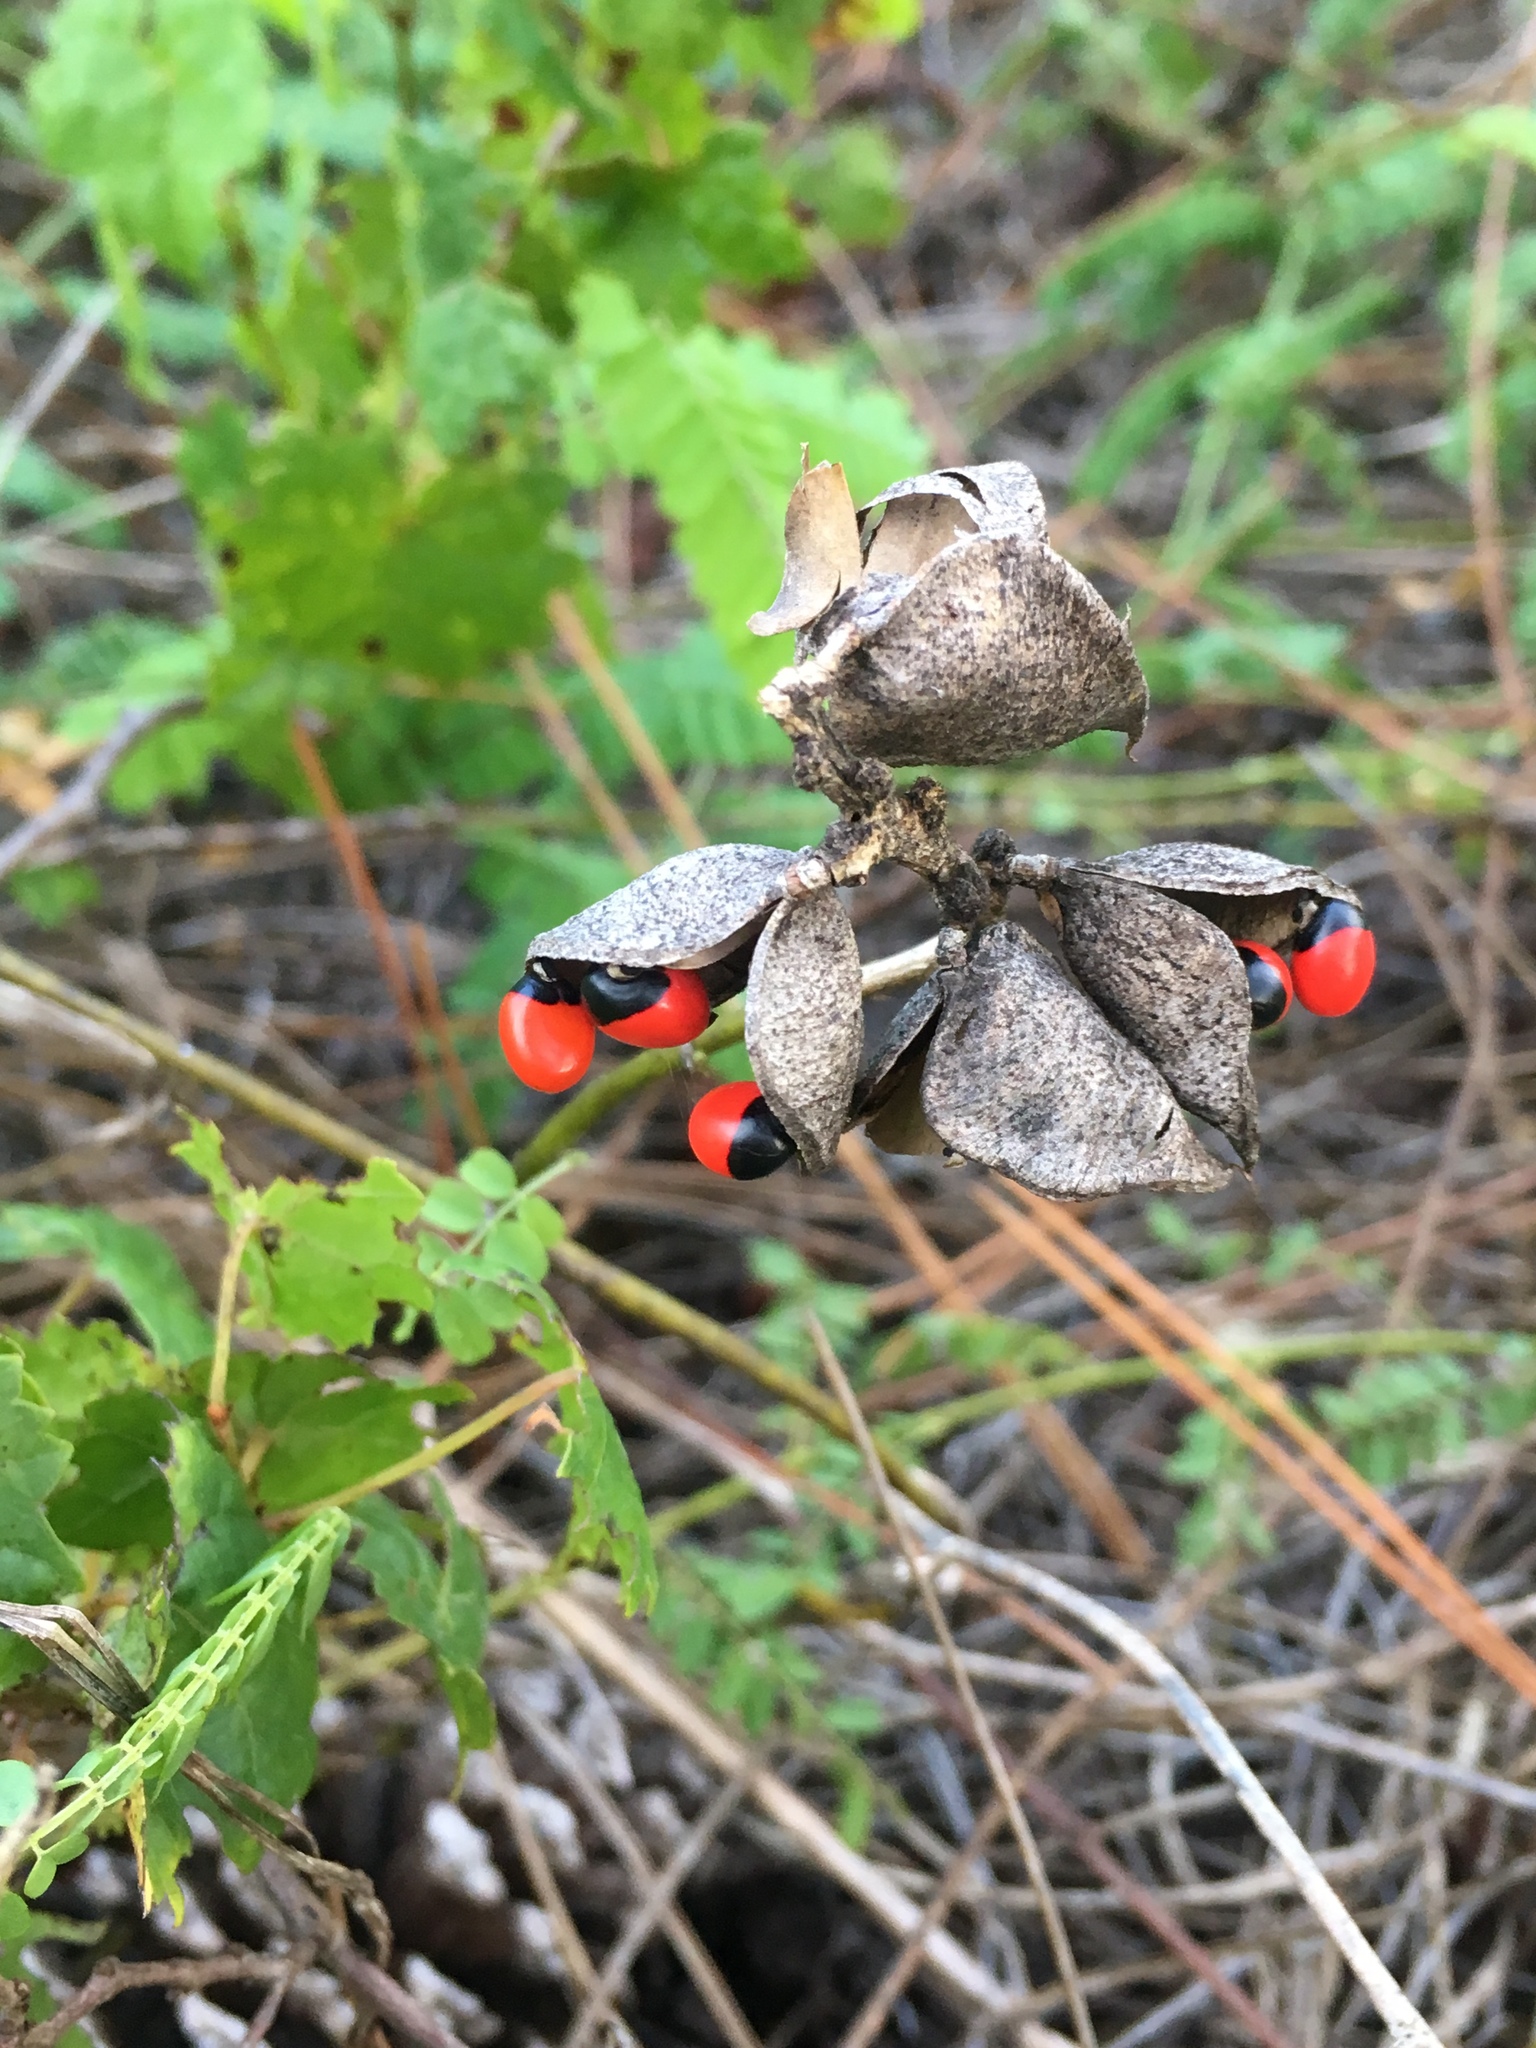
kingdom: Plantae
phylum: Tracheophyta
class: Magnoliopsida
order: Fabales
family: Fabaceae
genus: Abrus
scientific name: Abrus precatorius
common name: Rosarypea
